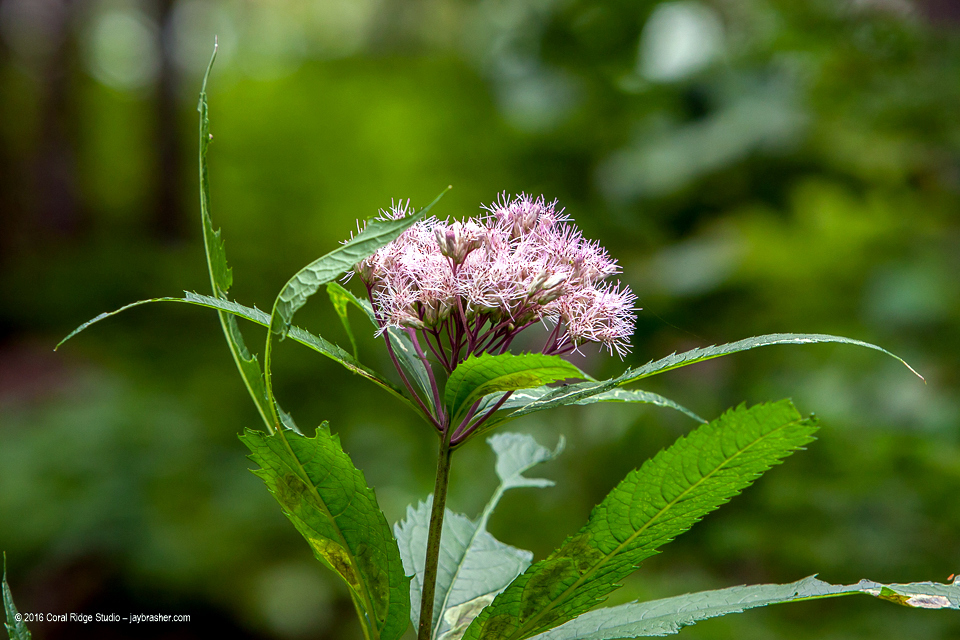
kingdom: Plantae
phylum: Tracheophyta
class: Magnoliopsida
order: Asterales
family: Asteraceae
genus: Eutrochium
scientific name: Eutrochium maculatum
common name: Spotted joe pye weed
